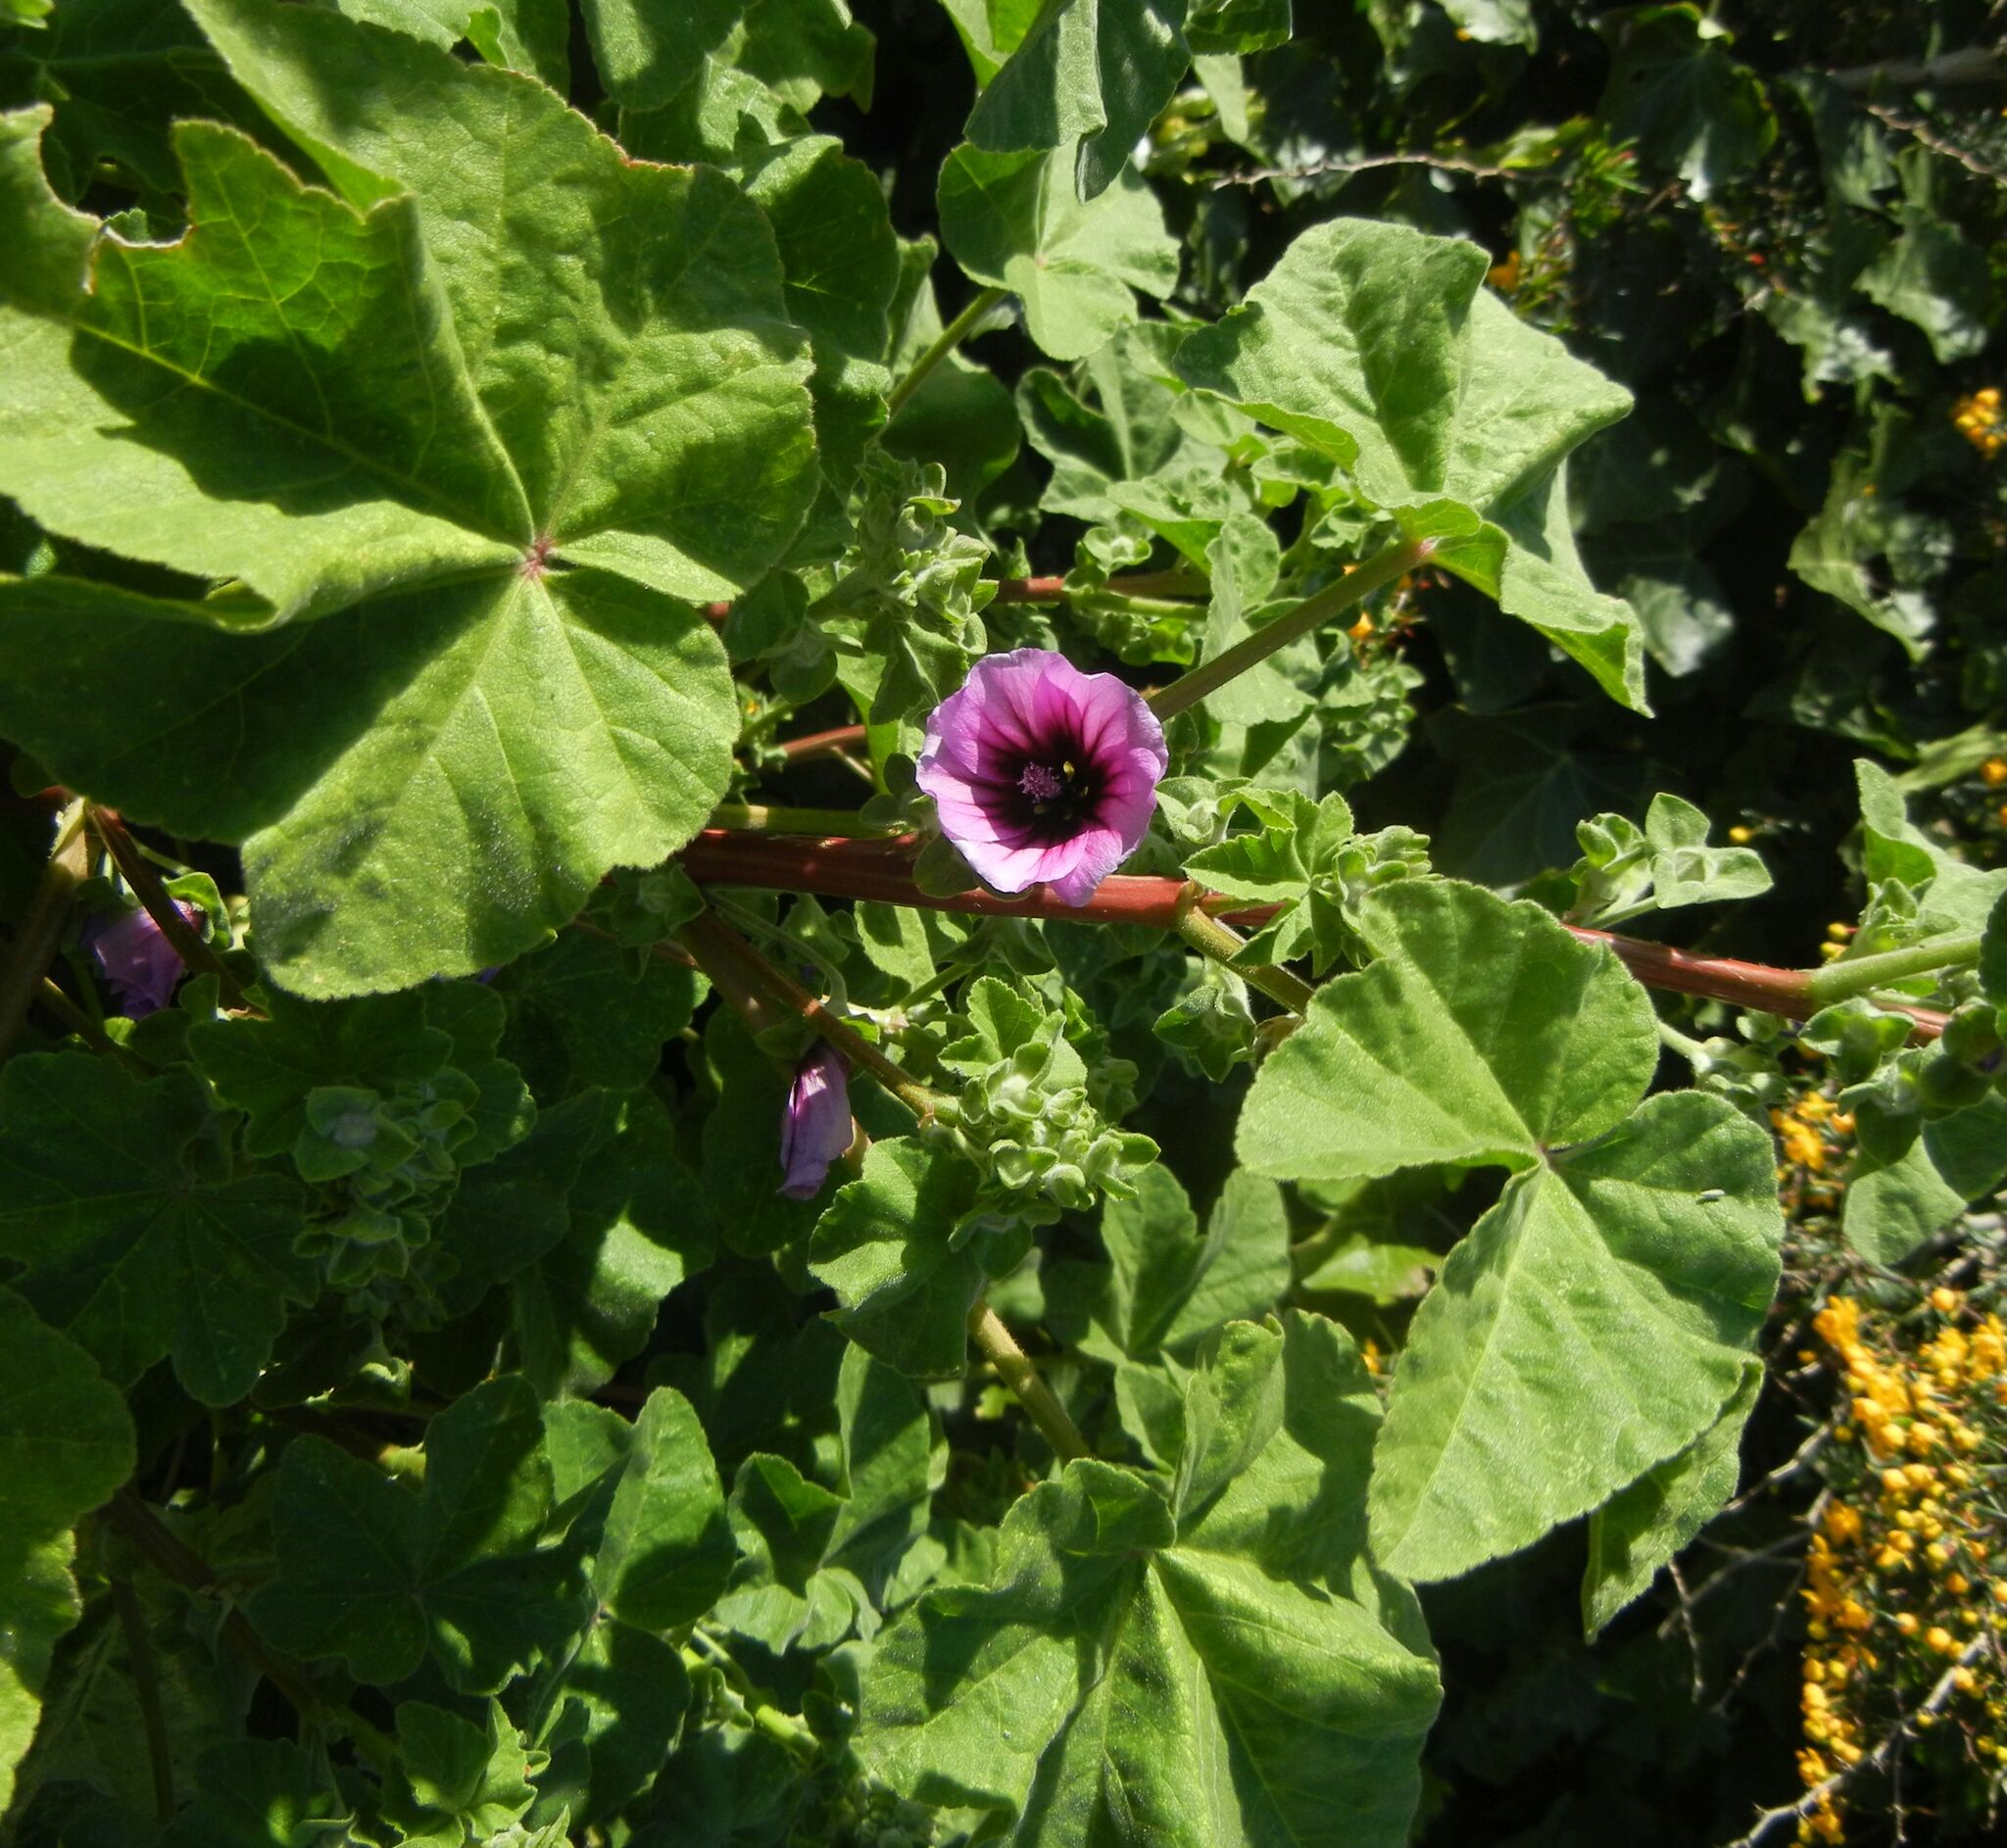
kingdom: Plantae
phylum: Tracheophyta
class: Magnoliopsida
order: Malvales
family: Malvaceae
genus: Malva
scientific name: Malva arborea
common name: Tree mallow
